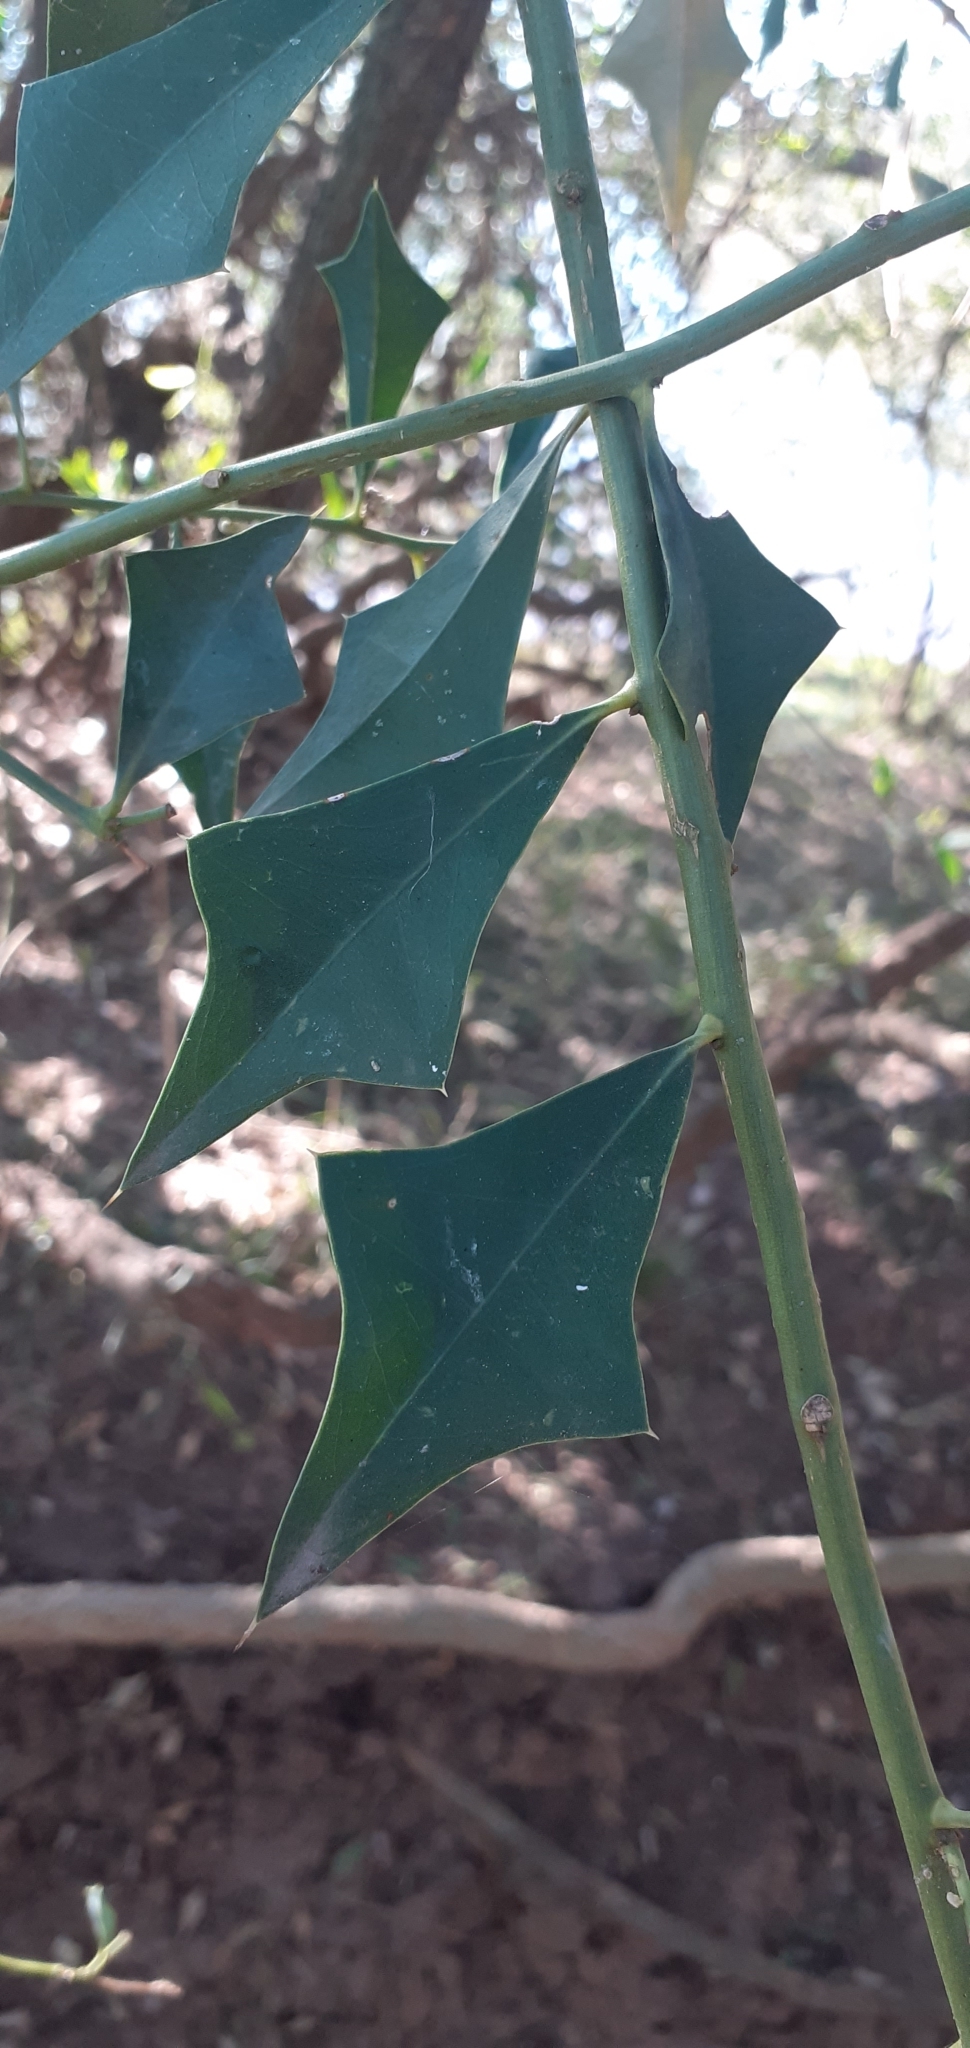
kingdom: Plantae
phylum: Tracheophyta
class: Magnoliopsida
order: Santalales
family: Cervantesiaceae
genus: Jodina
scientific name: Jodina rhombifolia
